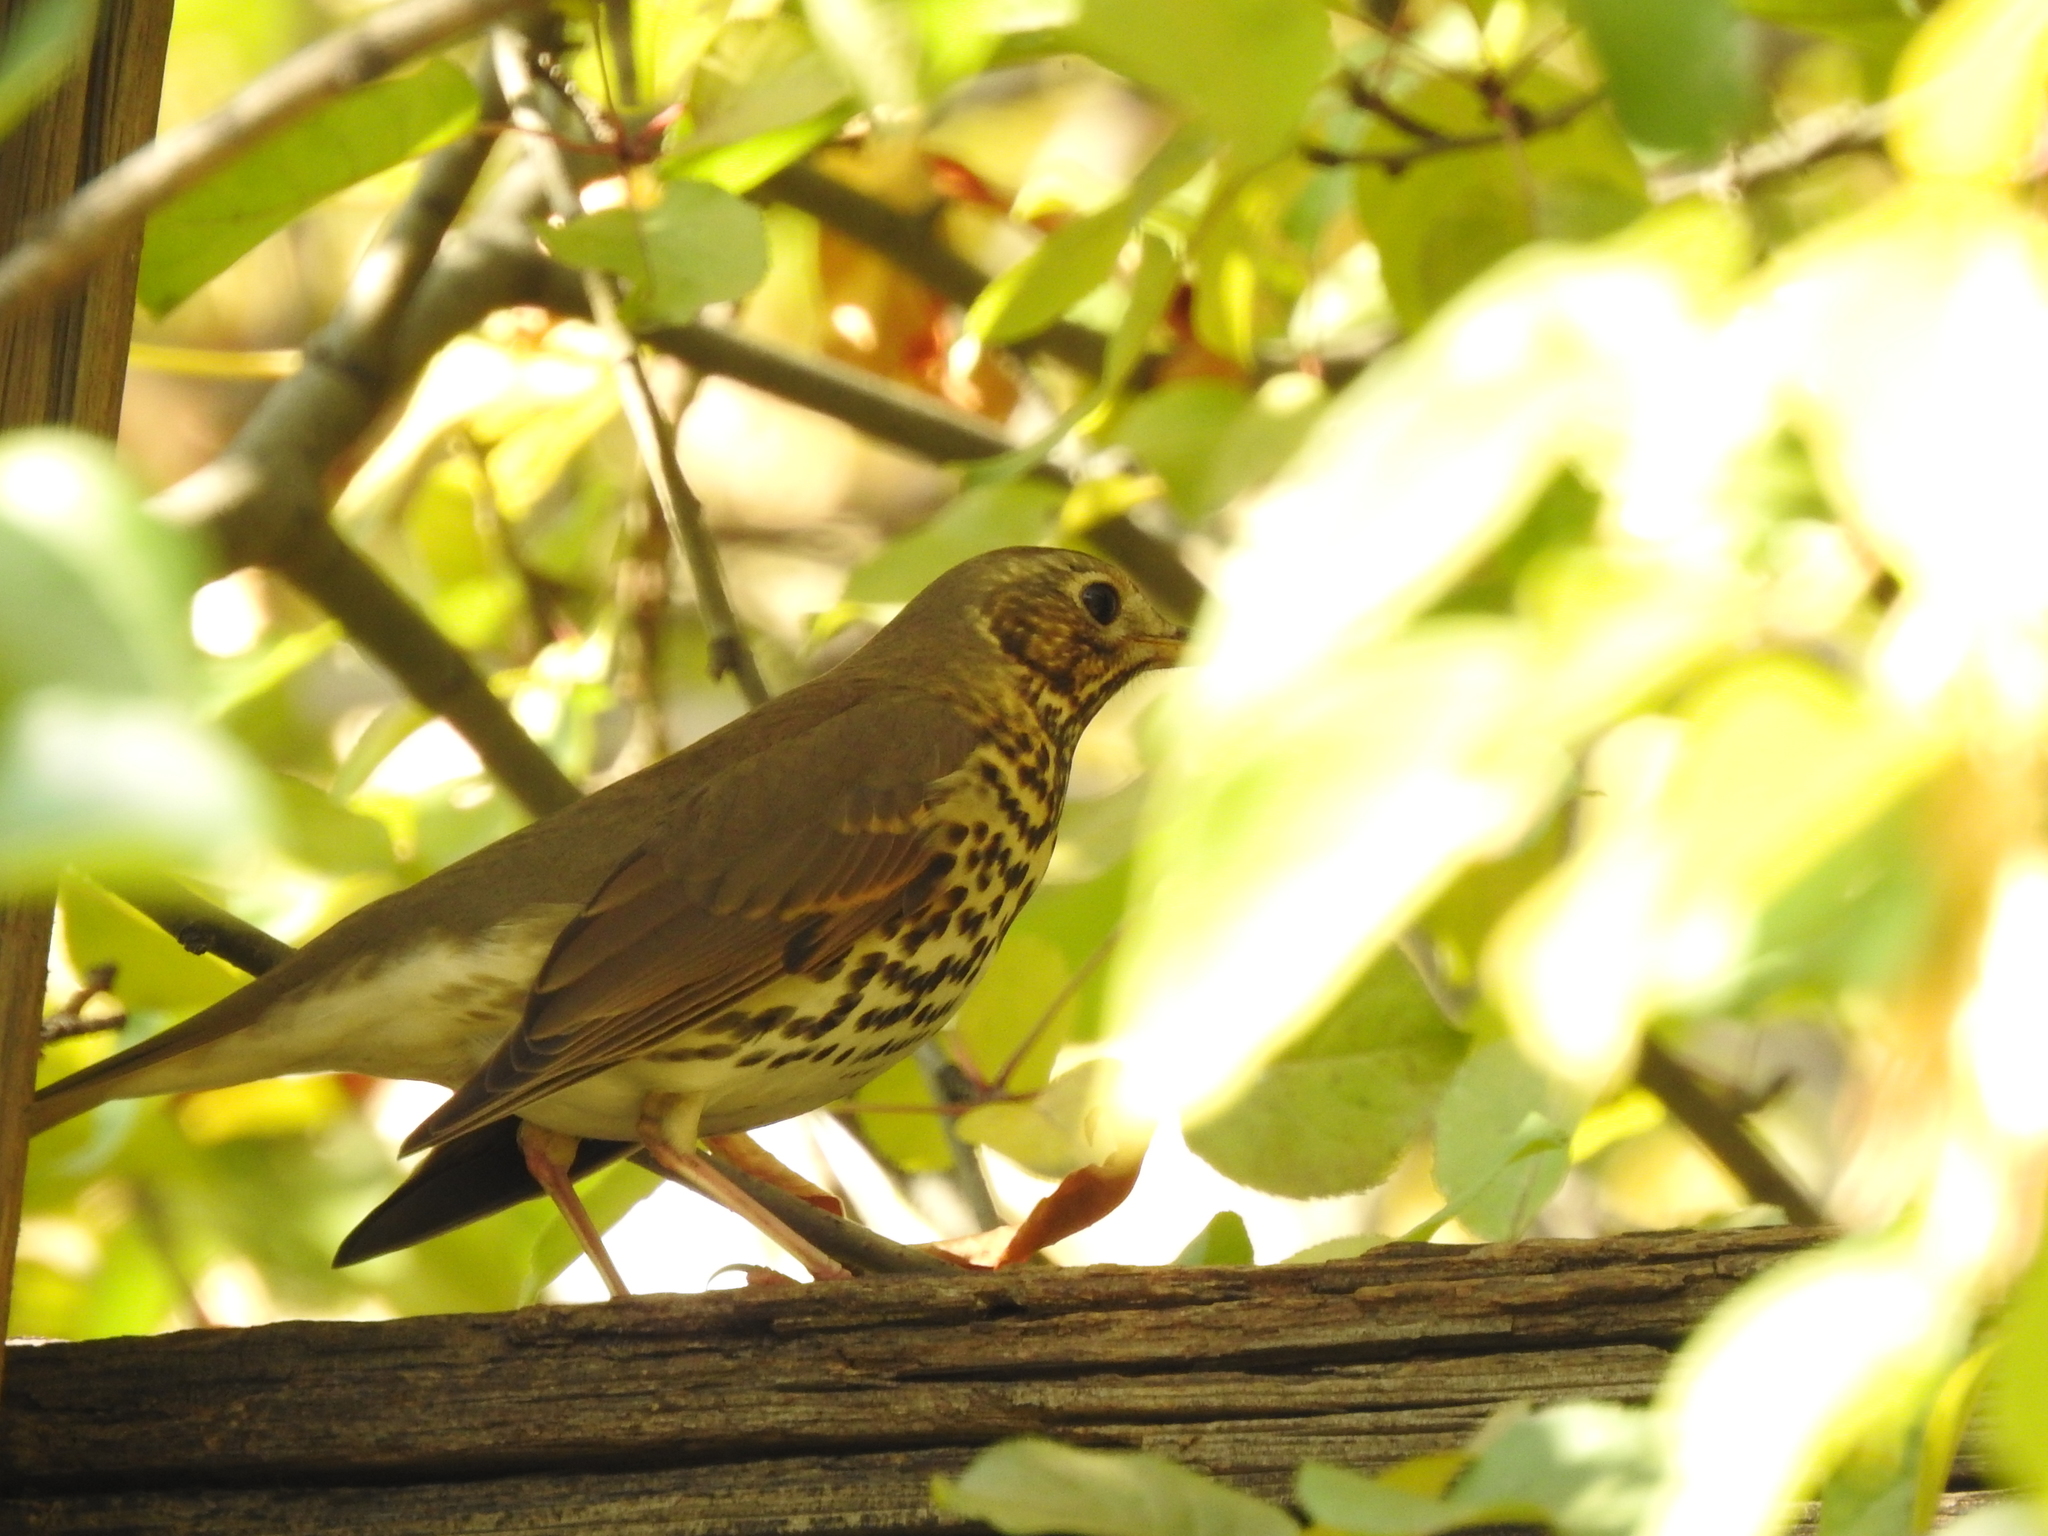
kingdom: Animalia
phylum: Chordata
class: Aves
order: Passeriformes
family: Turdidae
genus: Turdus
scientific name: Turdus philomelos
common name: Song thrush
